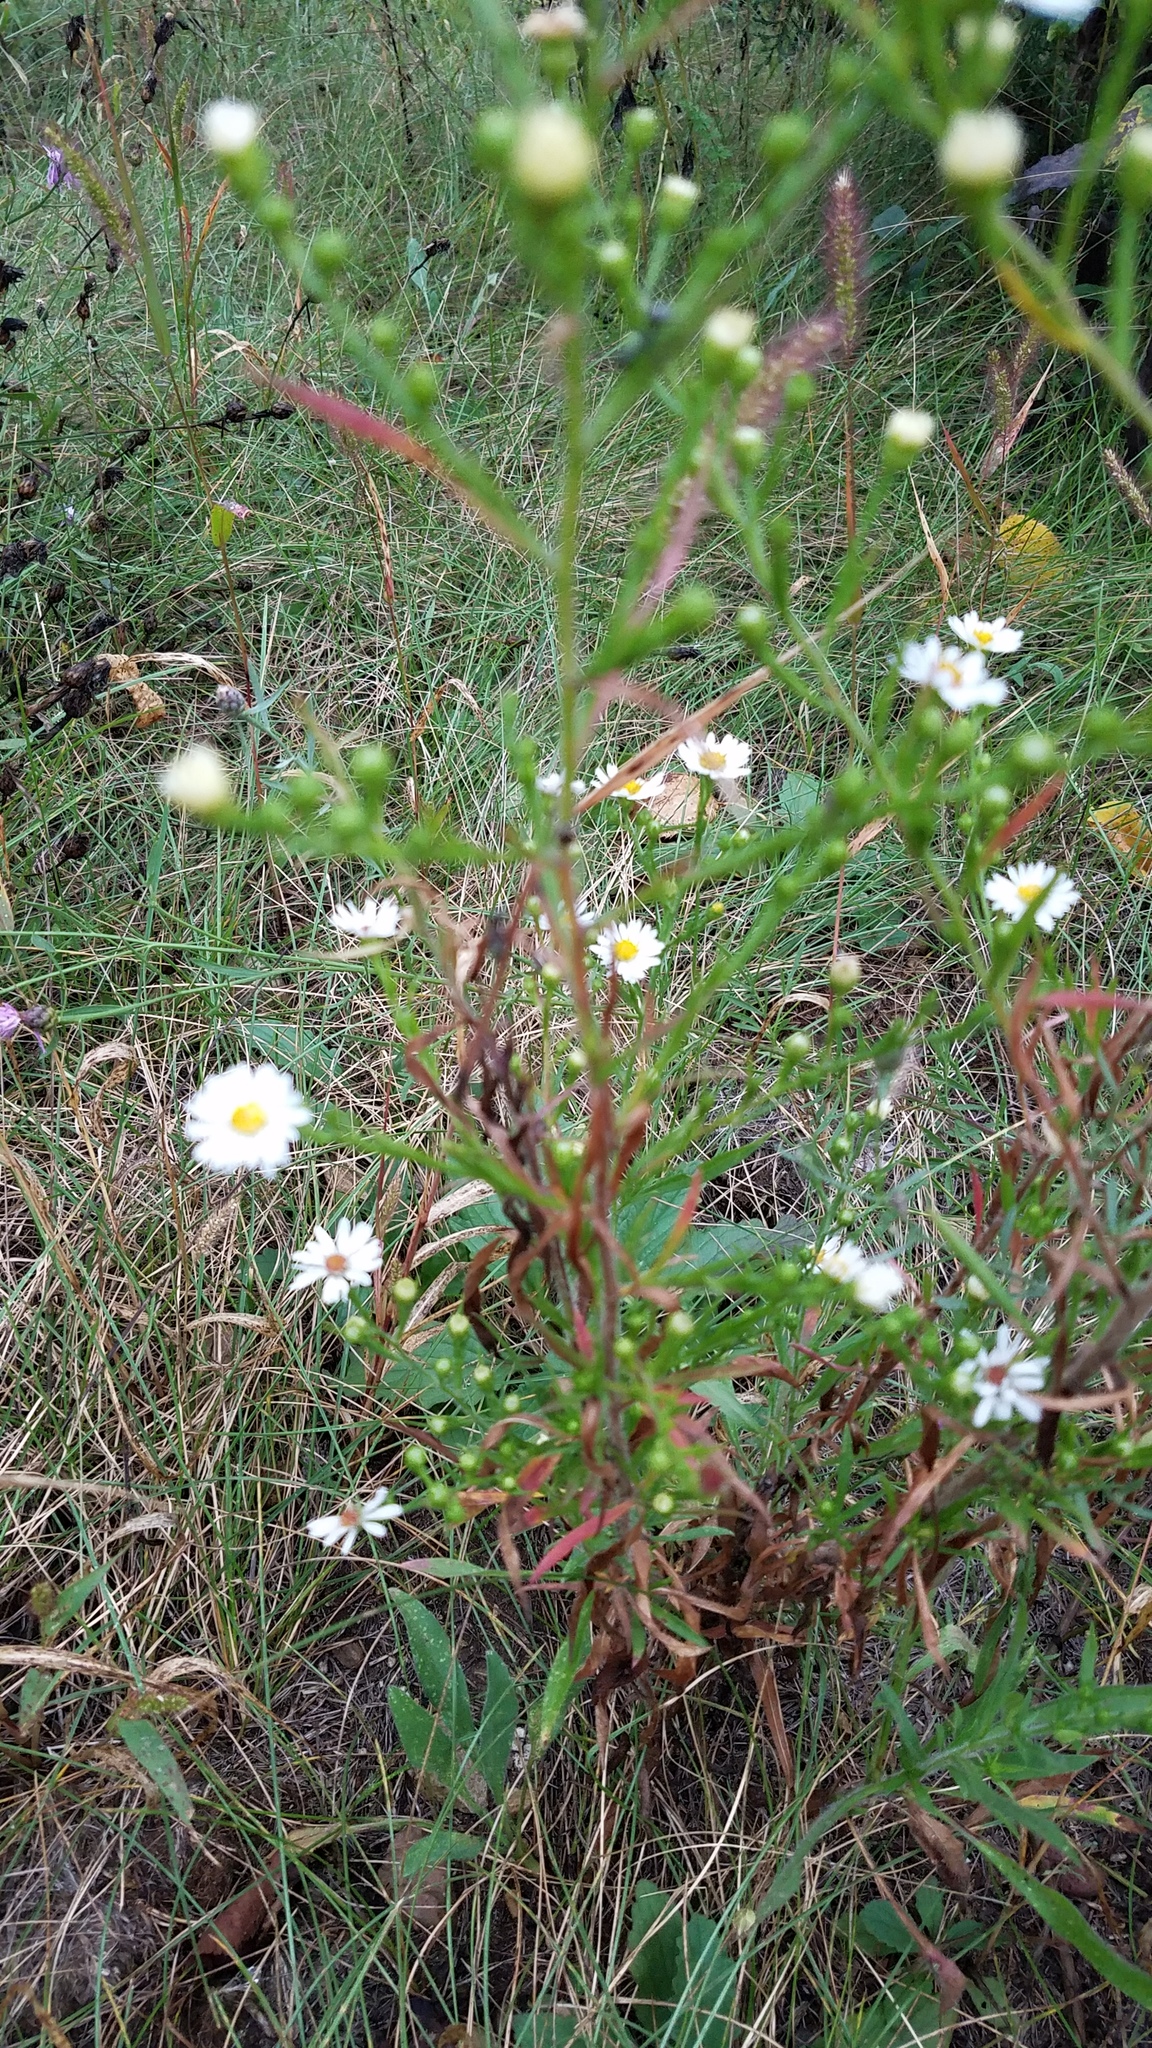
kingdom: Plantae
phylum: Tracheophyta
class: Magnoliopsida
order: Asterales
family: Asteraceae
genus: Symphyotrichum
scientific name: Symphyotrichum pilosum
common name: Awl aster
